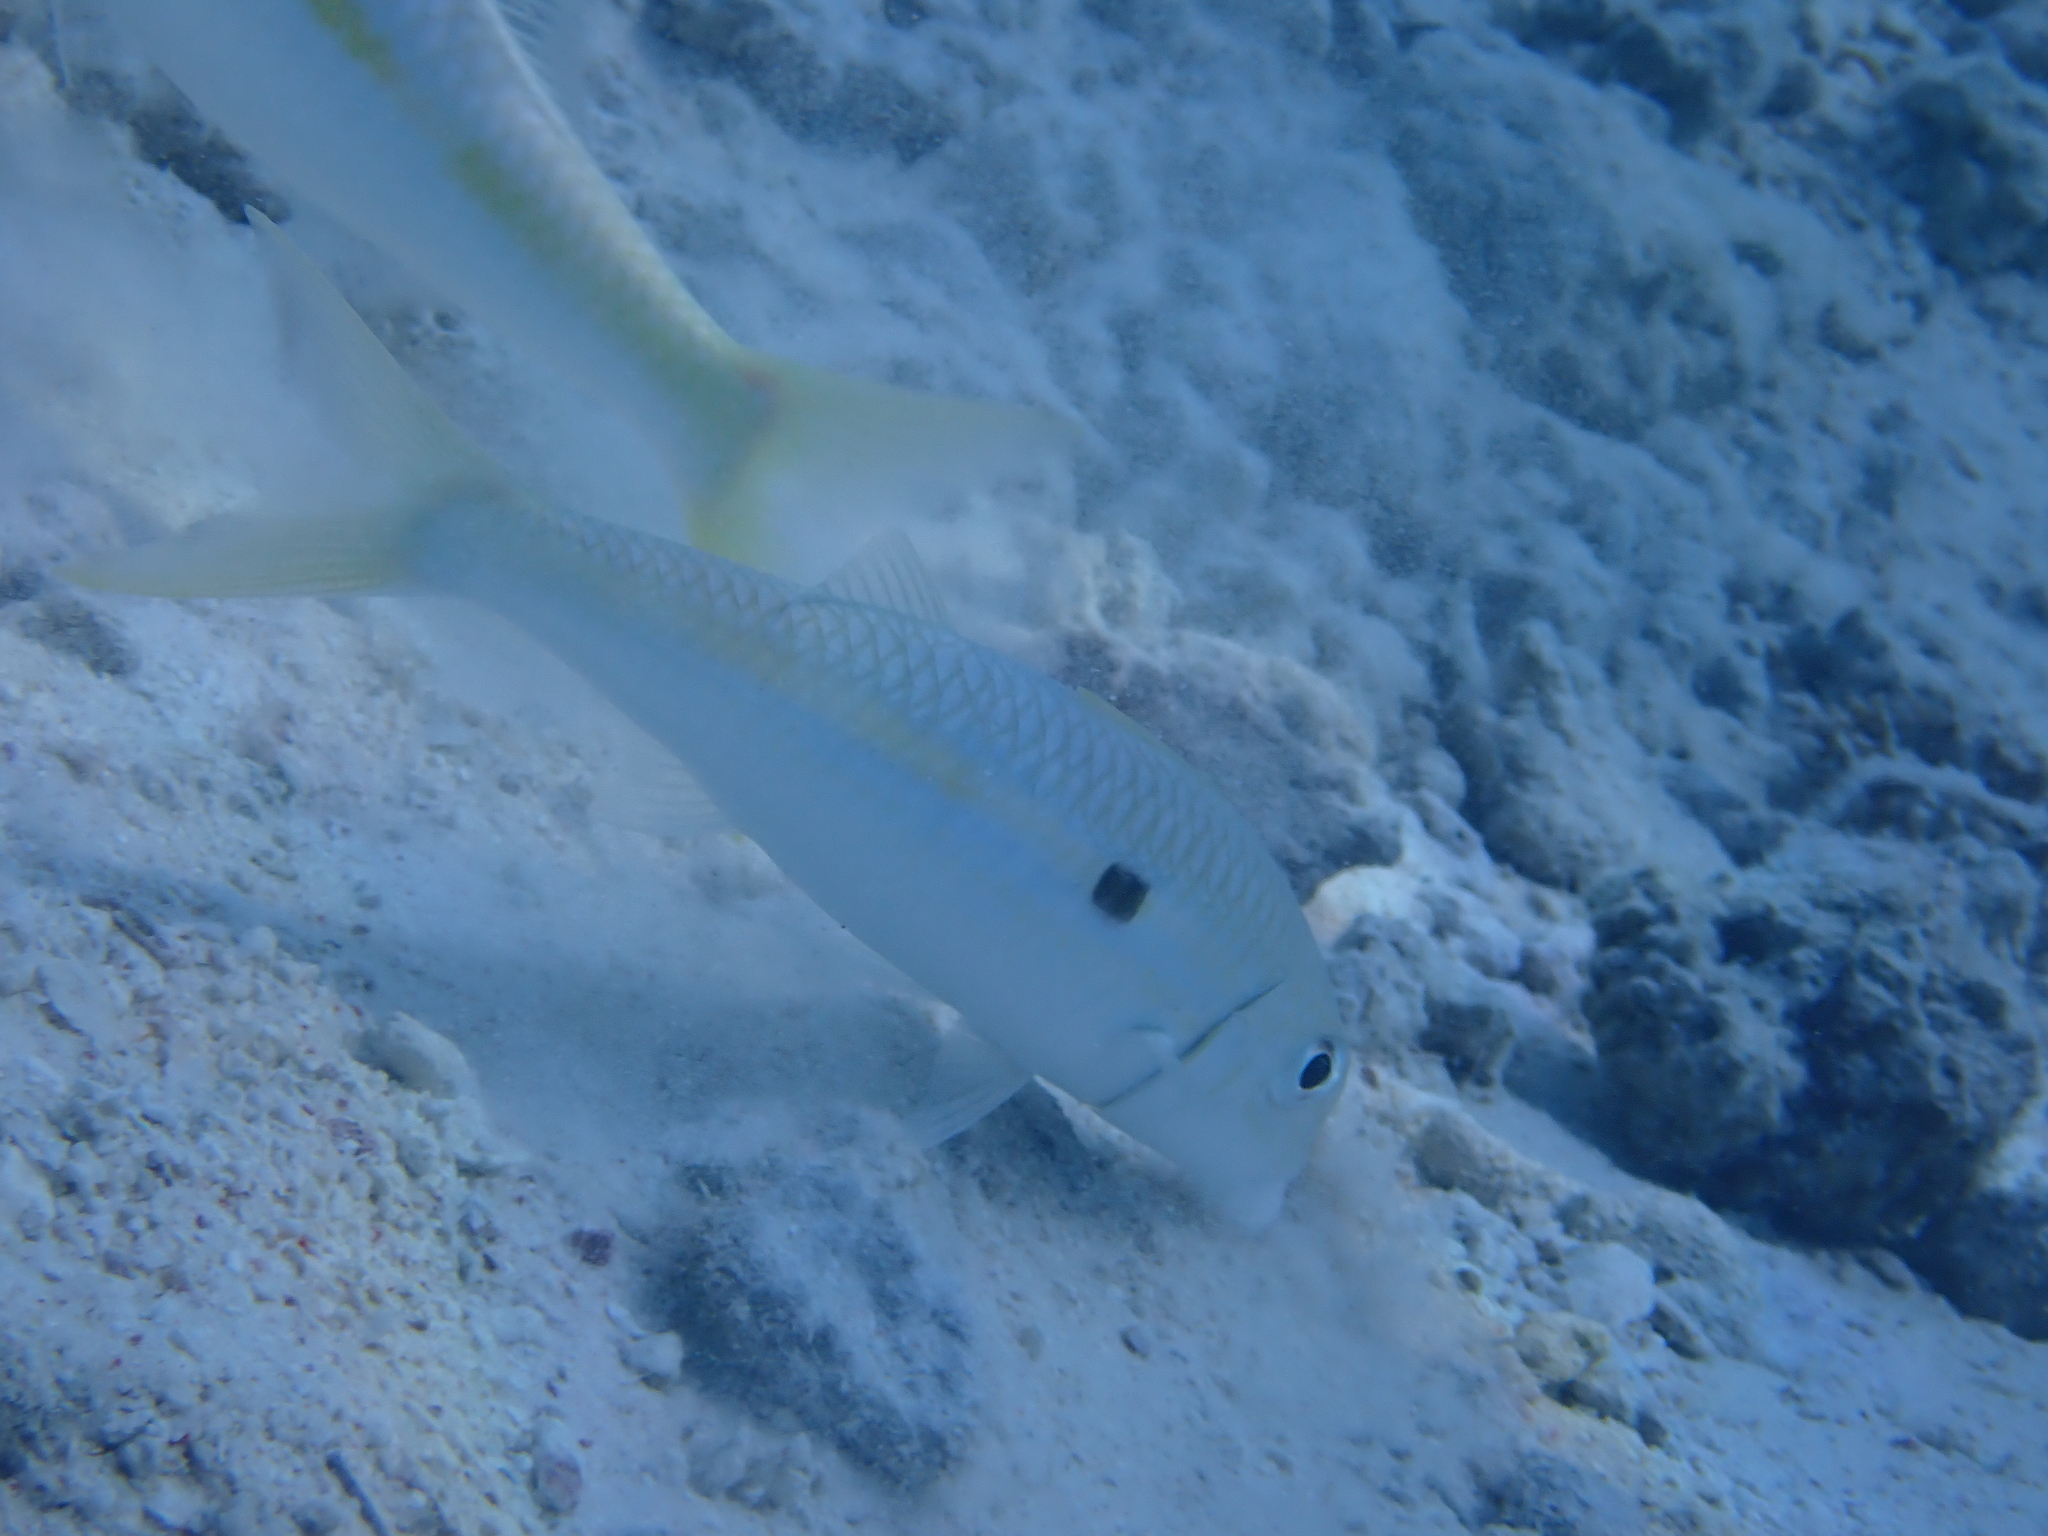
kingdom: Animalia
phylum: Chordata
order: Perciformes
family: Mullidae
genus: Mulloidichthys
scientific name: Mulloidichthys flavolineatus
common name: Yellowstripe goatfish
